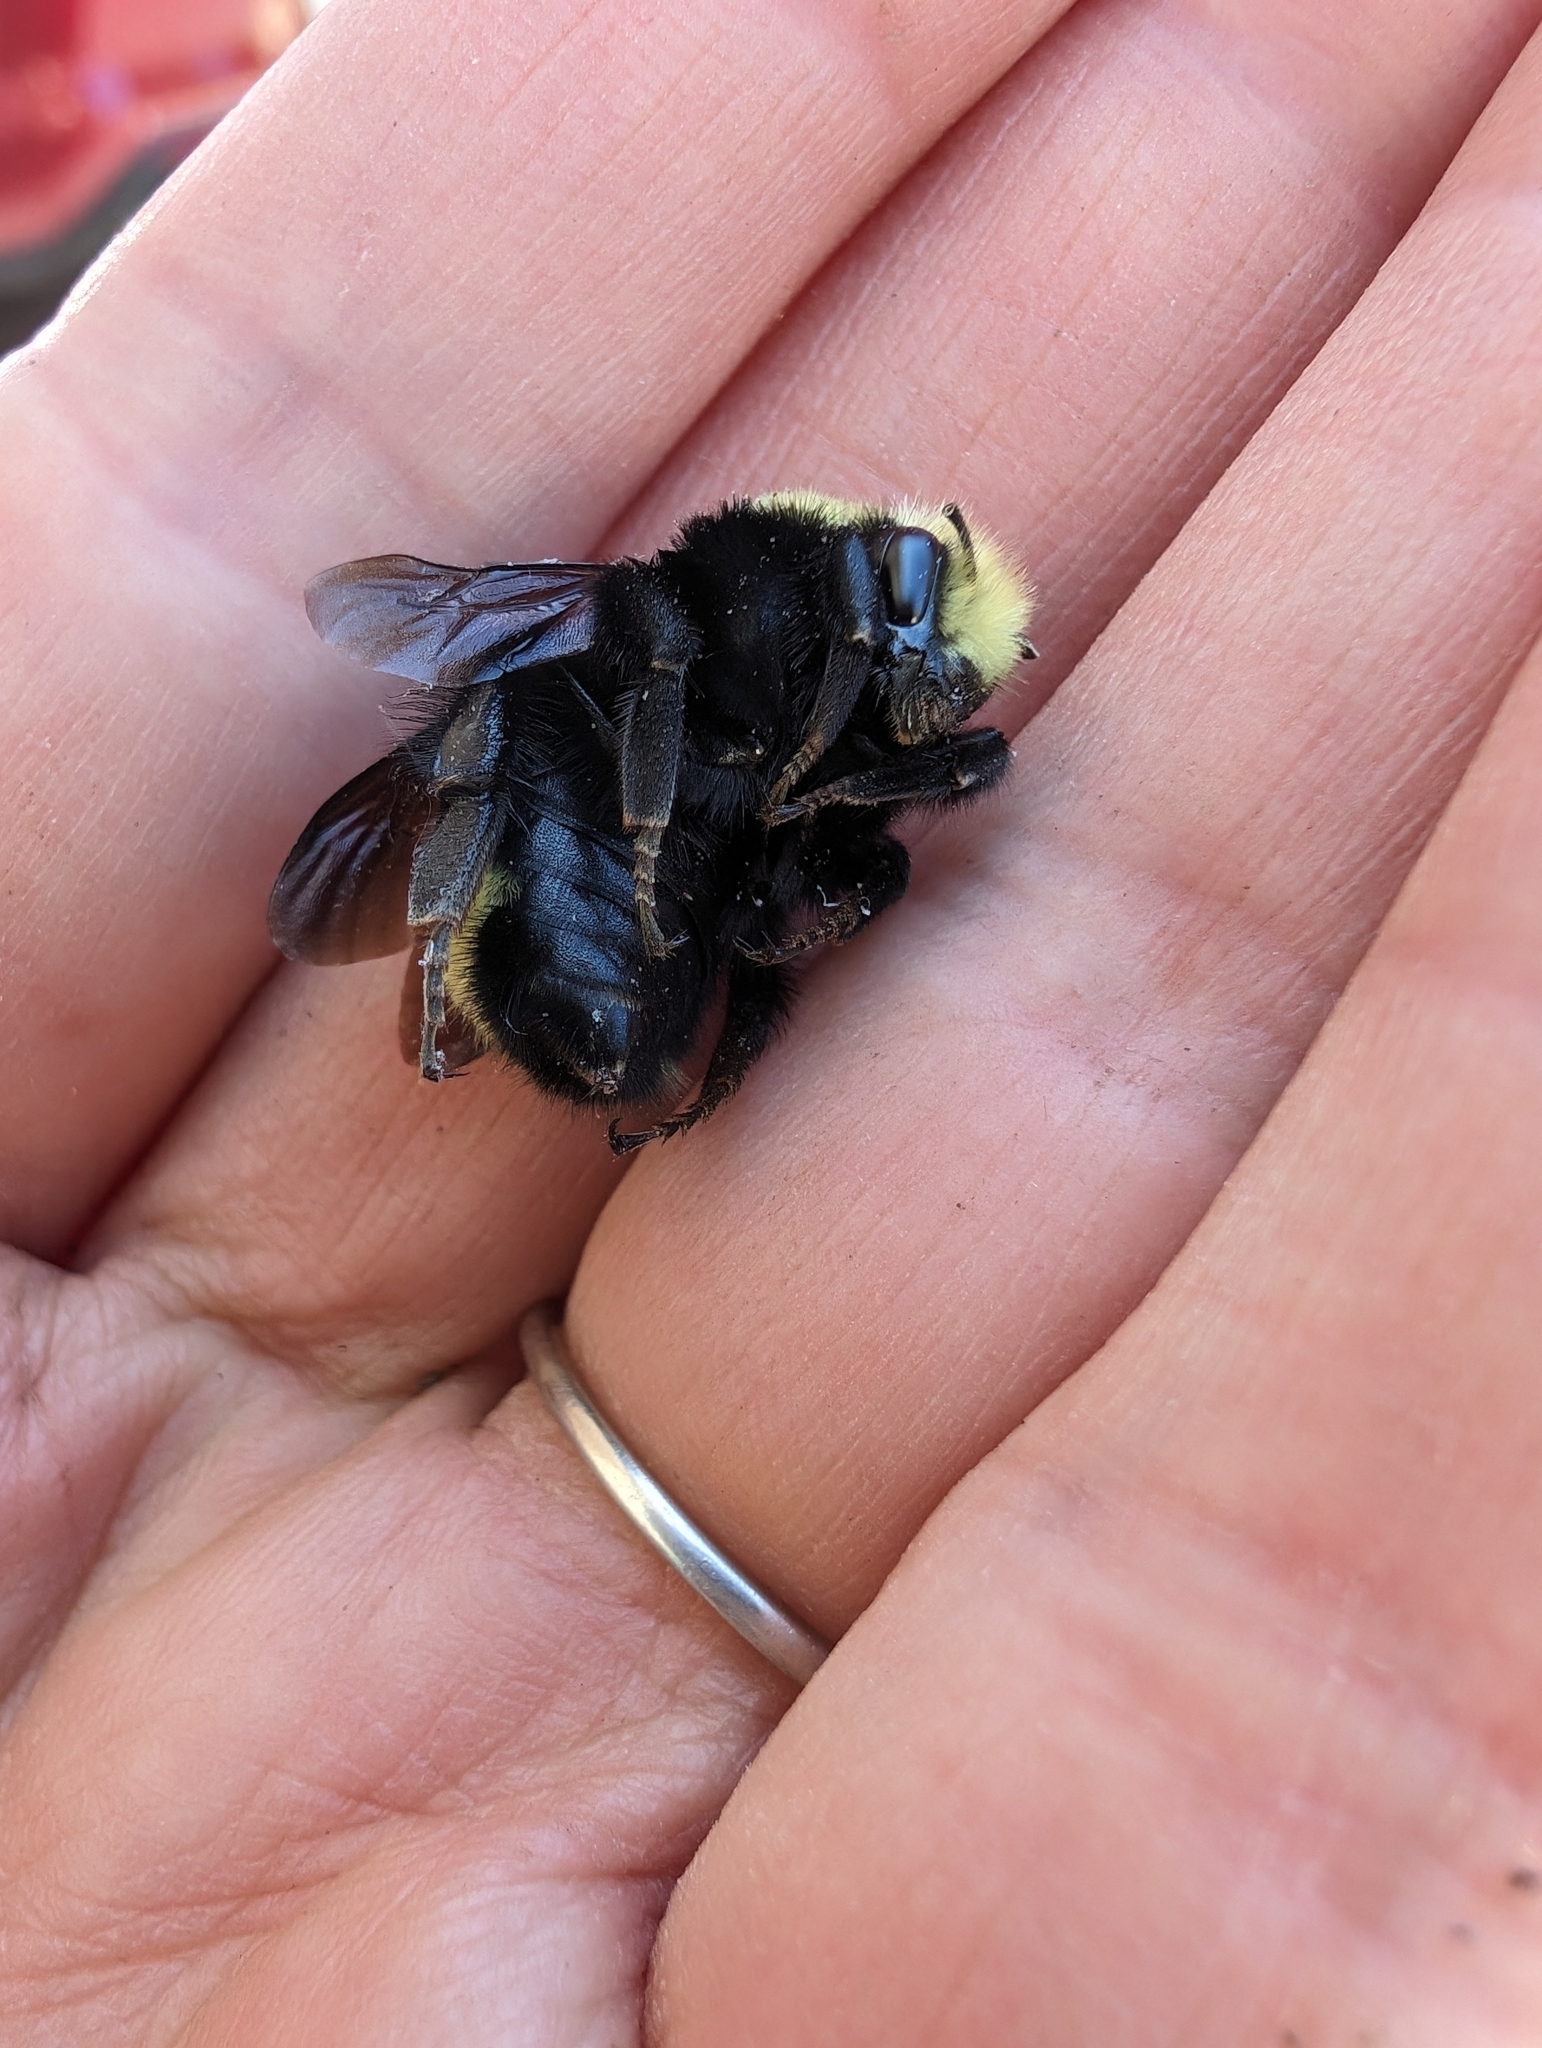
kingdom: Animalia
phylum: Arthropoda
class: Insecta
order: Hymenoptera
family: Apidae
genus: Bombus
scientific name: Bombus vosnesenskii
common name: Vosnesensky bumble bee
